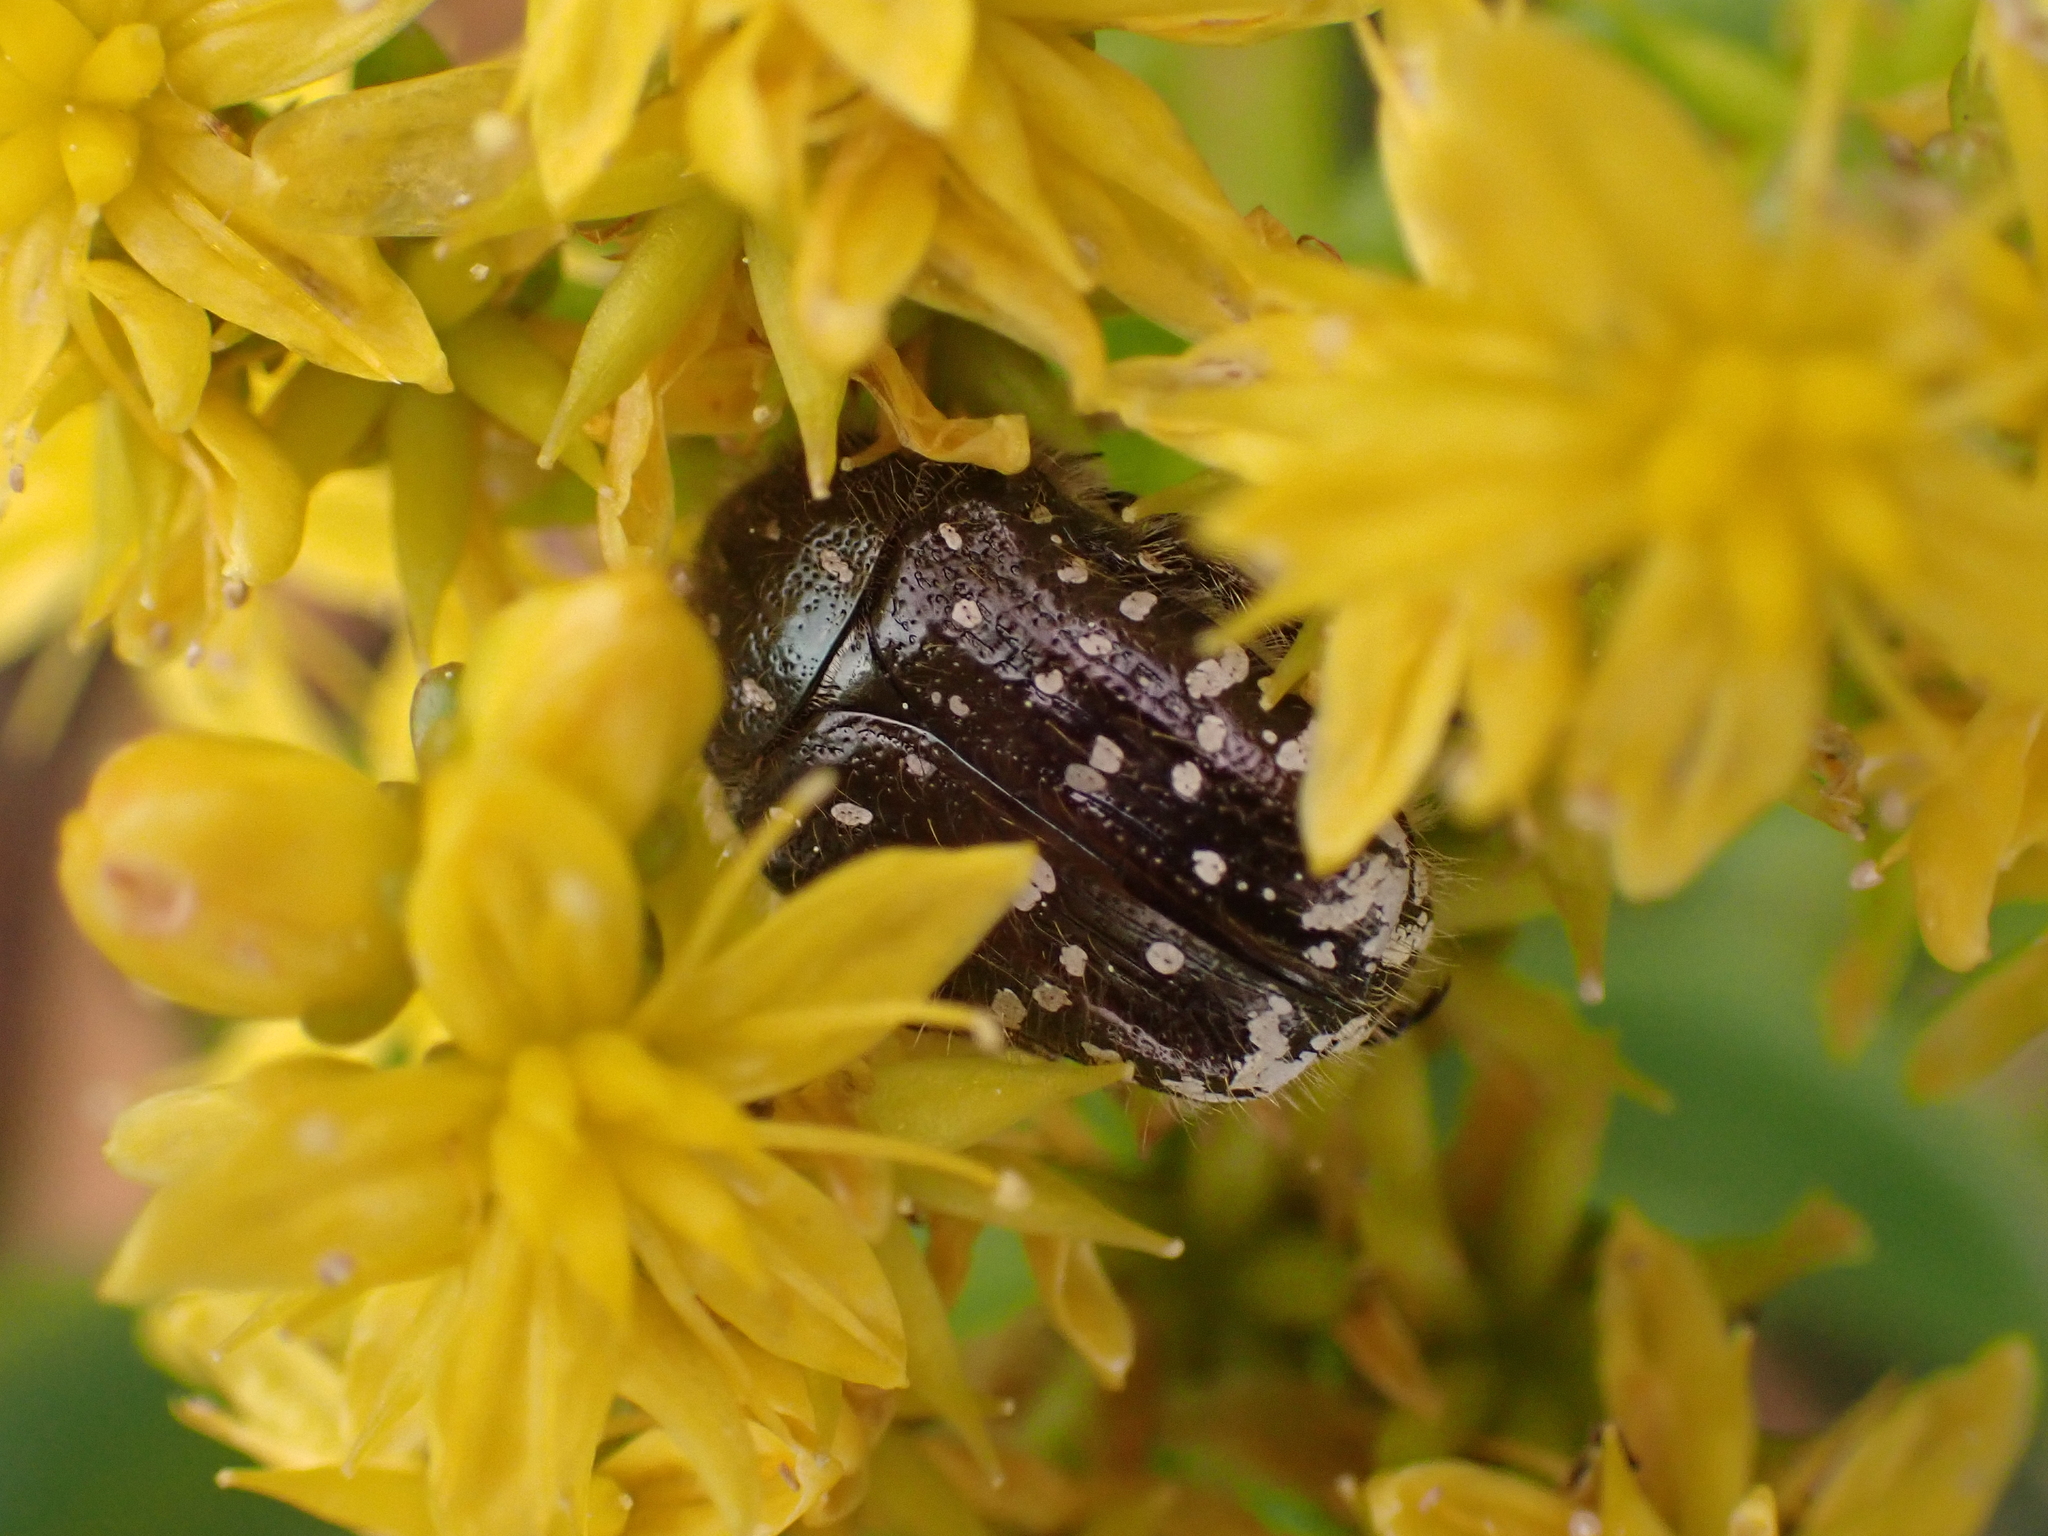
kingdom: Animalia
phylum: Arthropoda
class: Insecta
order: Coleoptera
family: Scarabaeidae
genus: Oxythyrea
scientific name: Oxythyrea funesta
